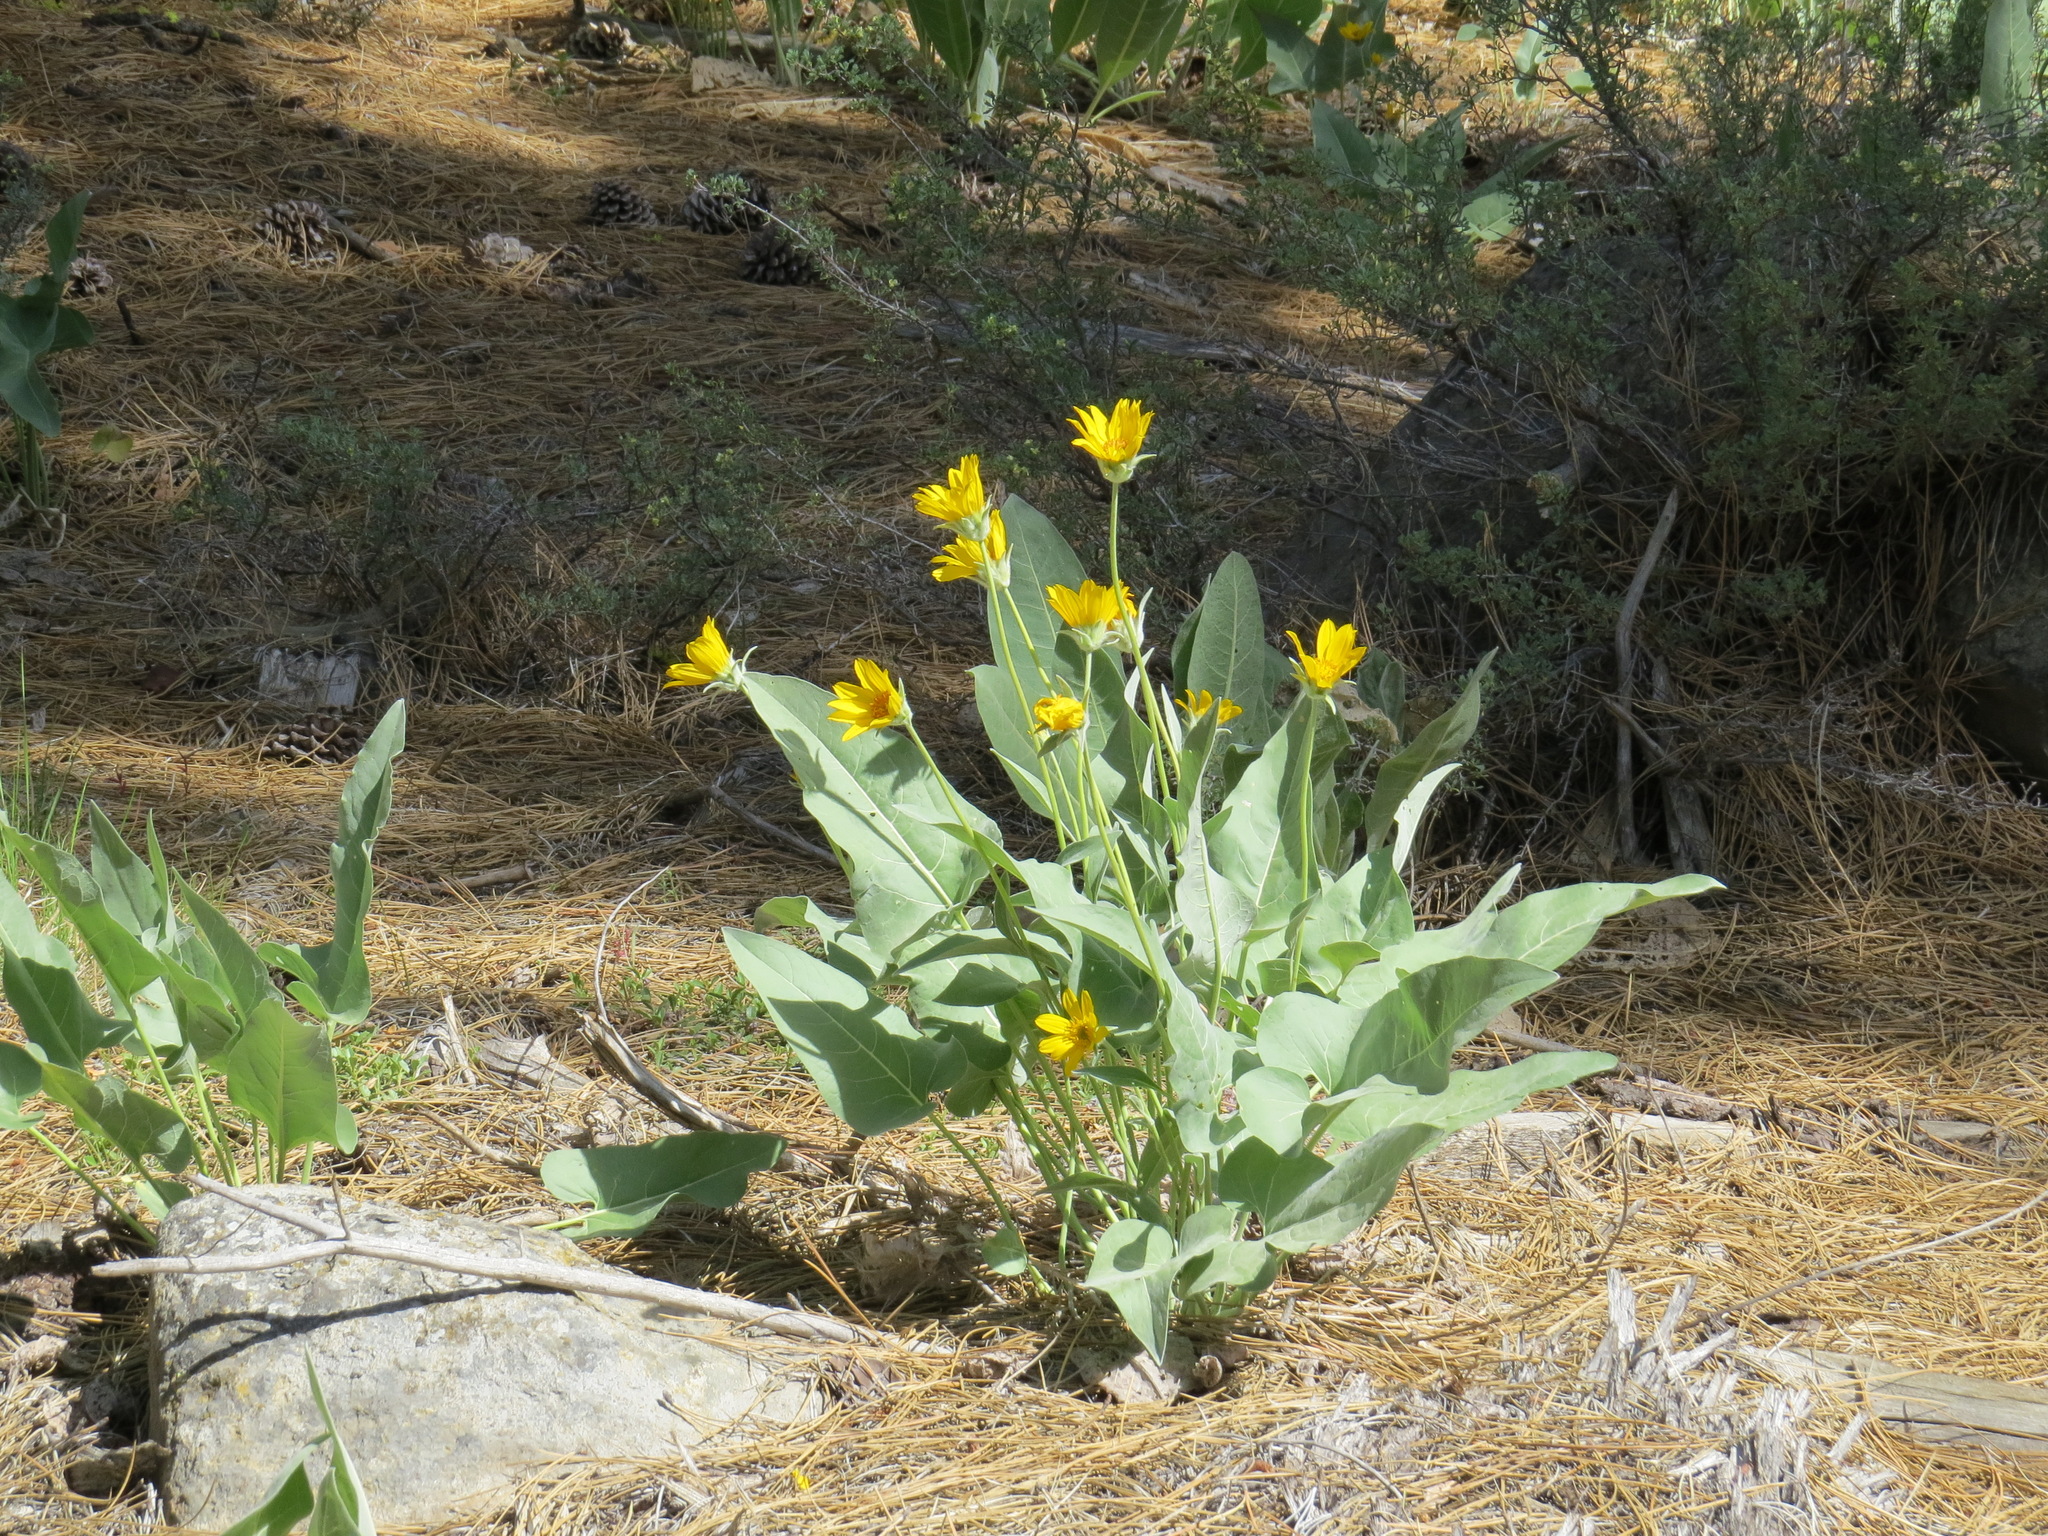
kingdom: Plantae
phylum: Tracheophyta
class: Magnoliopsida
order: Asterales
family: Asteraceae
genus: Wyethia
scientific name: Wyethia sagittata
